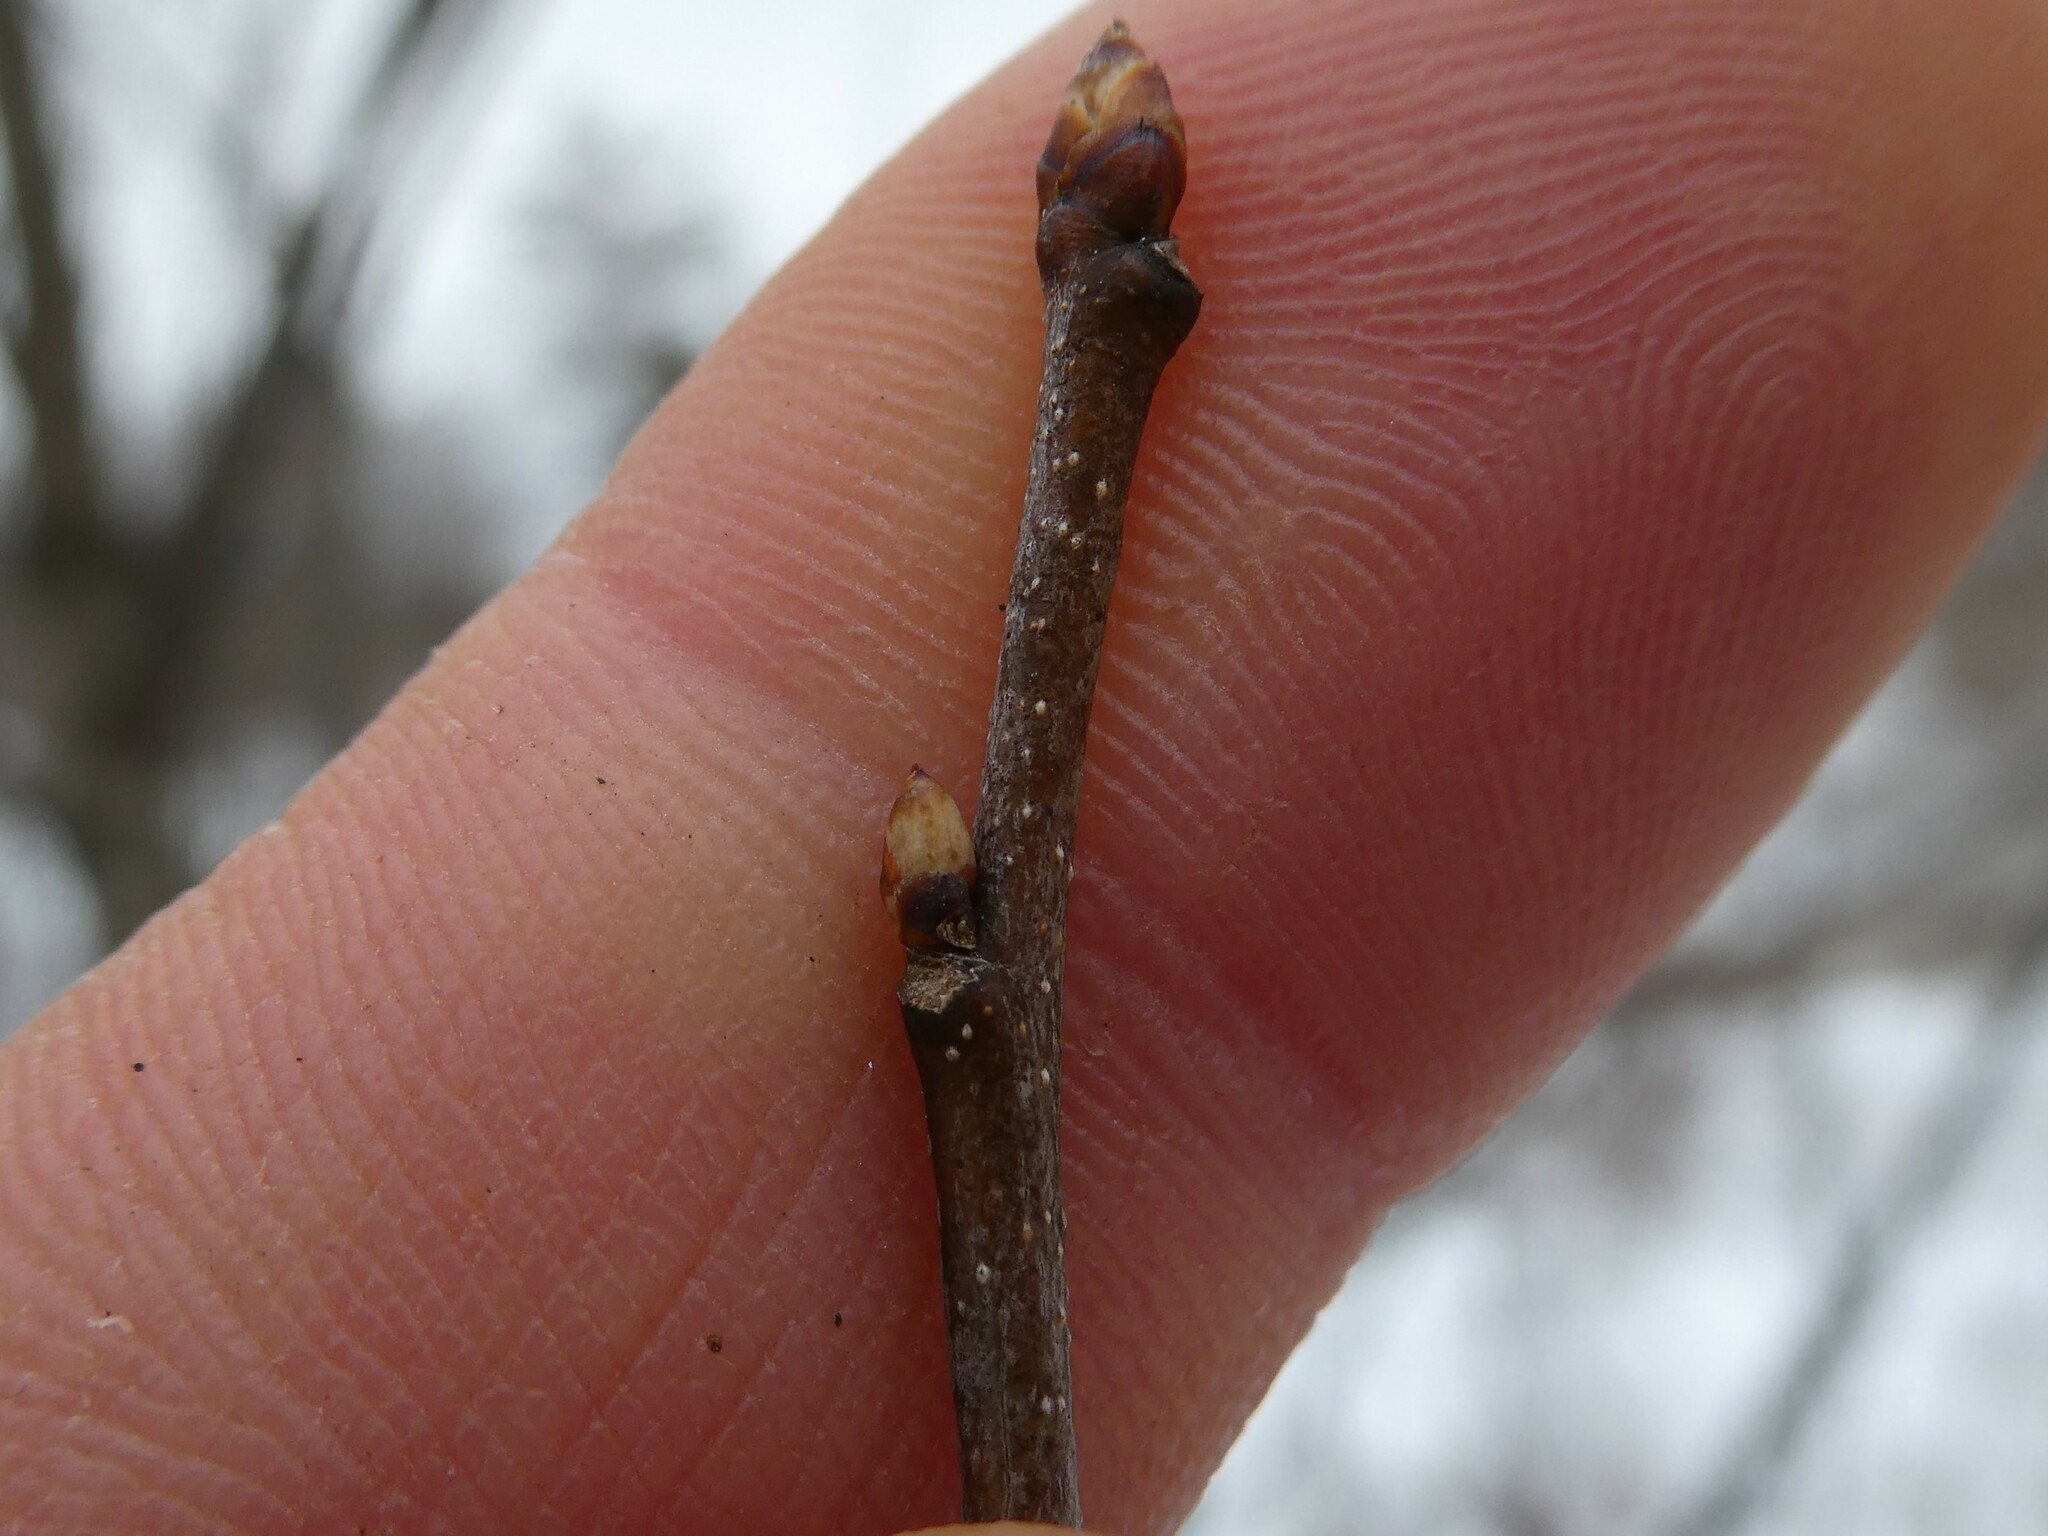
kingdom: Plantae
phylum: Tracheophyta
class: Magnoliopsida
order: Rosales
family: Rosaceae
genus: Prunus
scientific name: Prunus serotina
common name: Black cherry
